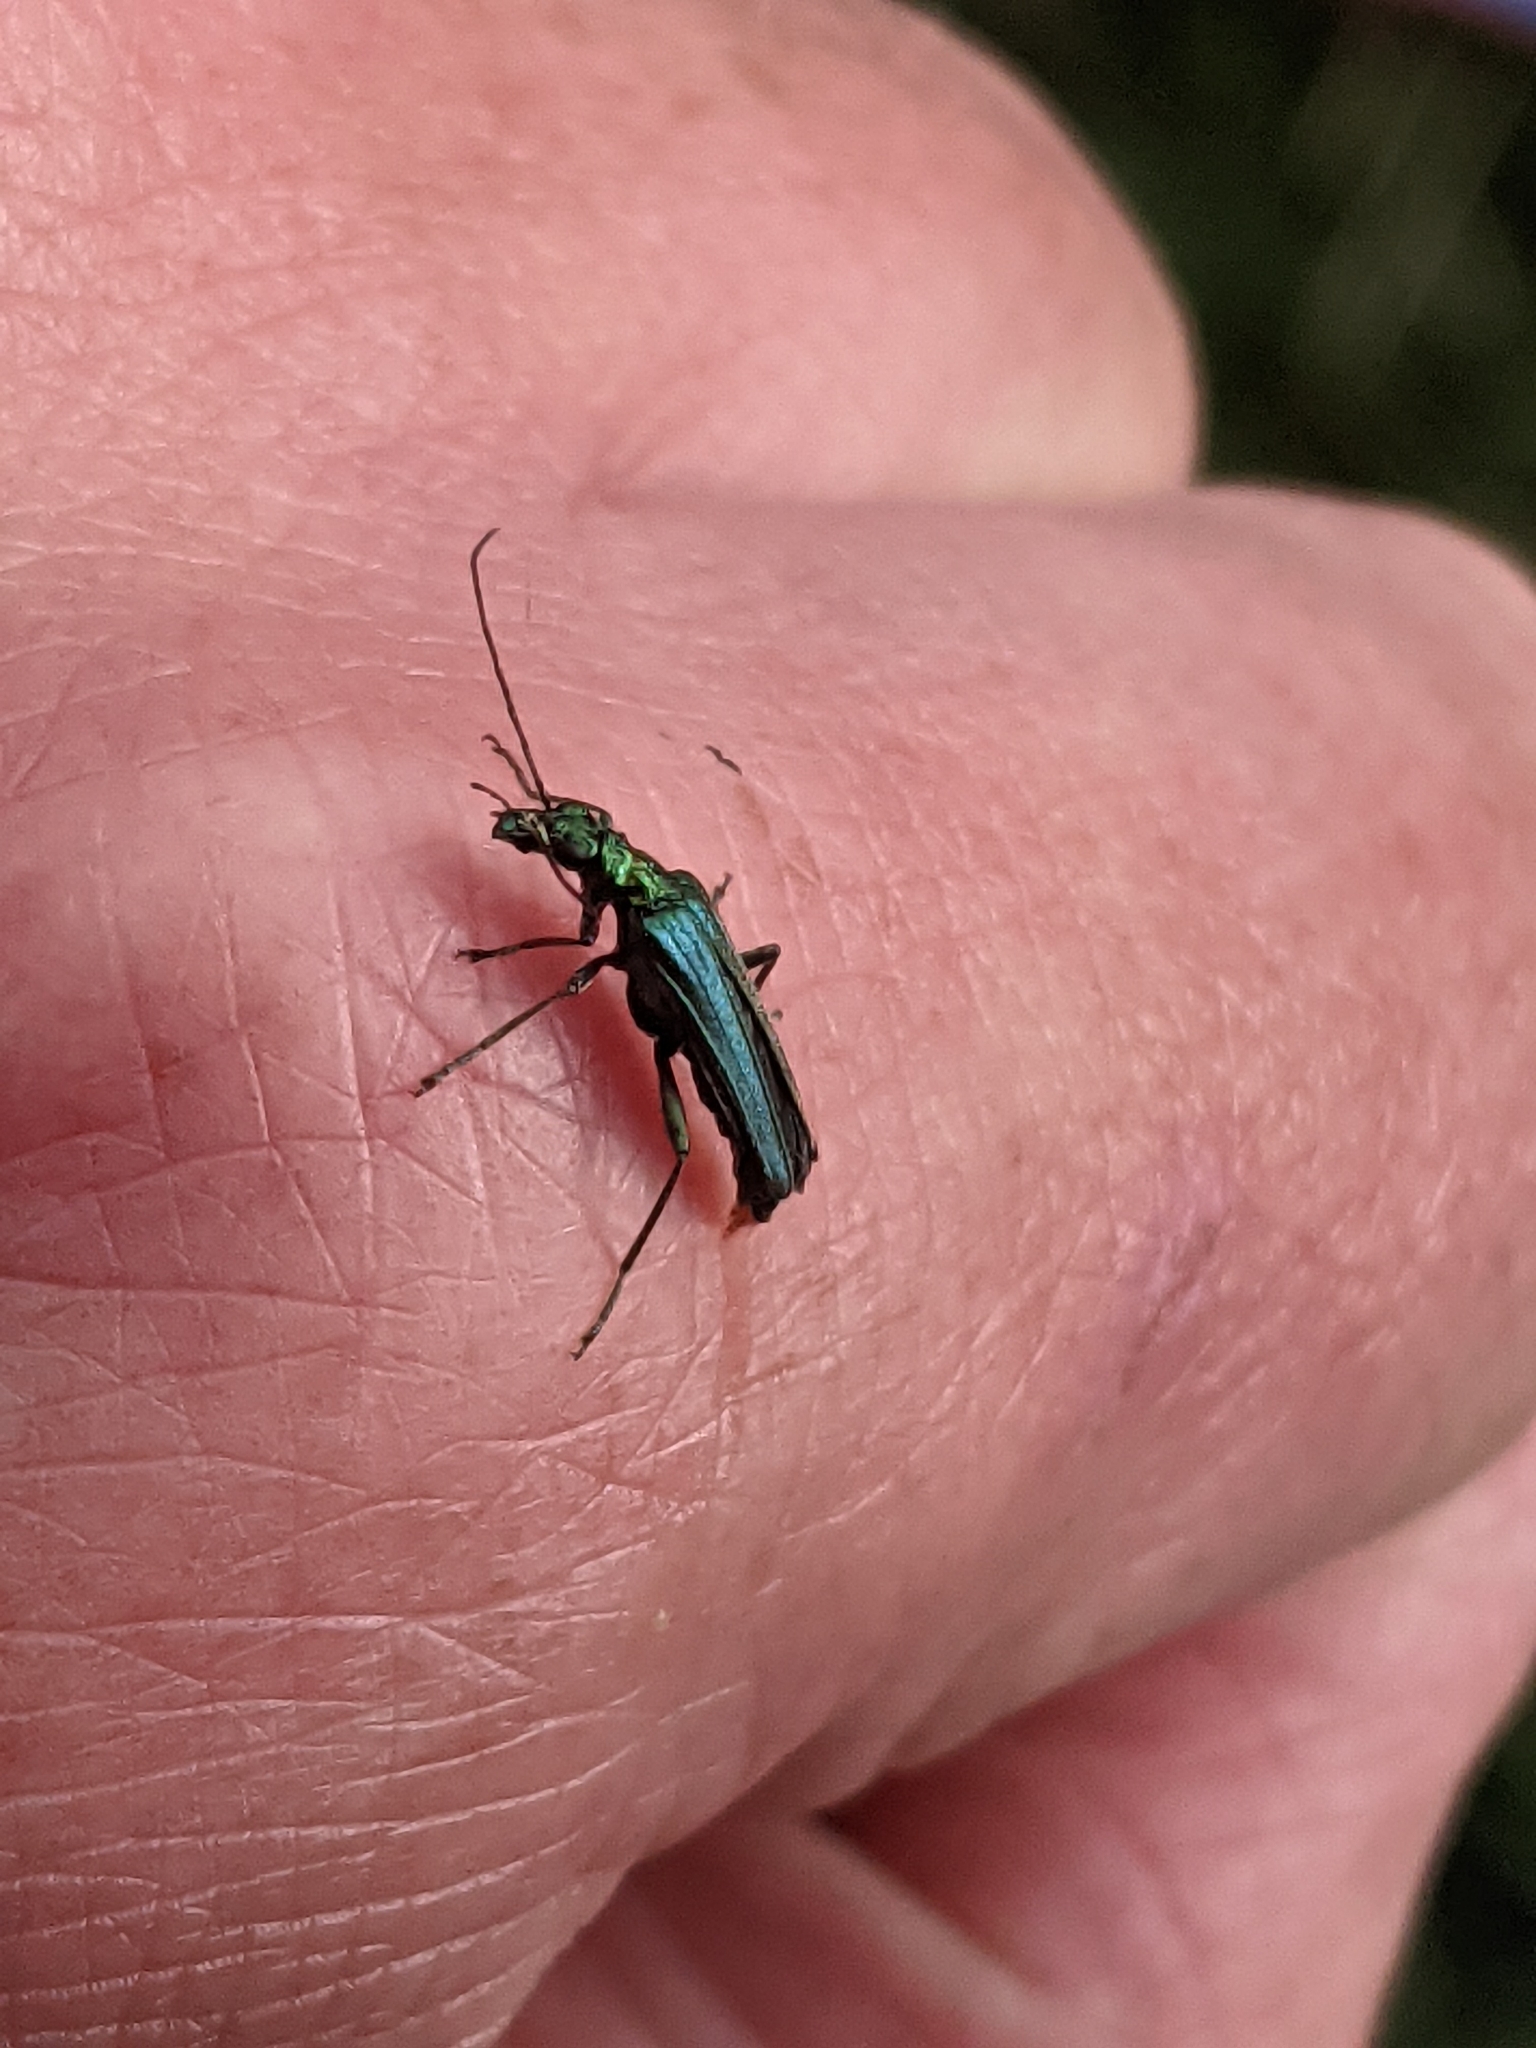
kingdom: Animalia
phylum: Arthropoda
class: Insecta
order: Coleoptera
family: Oedemeridae
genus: Oedemera
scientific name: Oedemera nobilis
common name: Swollen-thighed beetle
